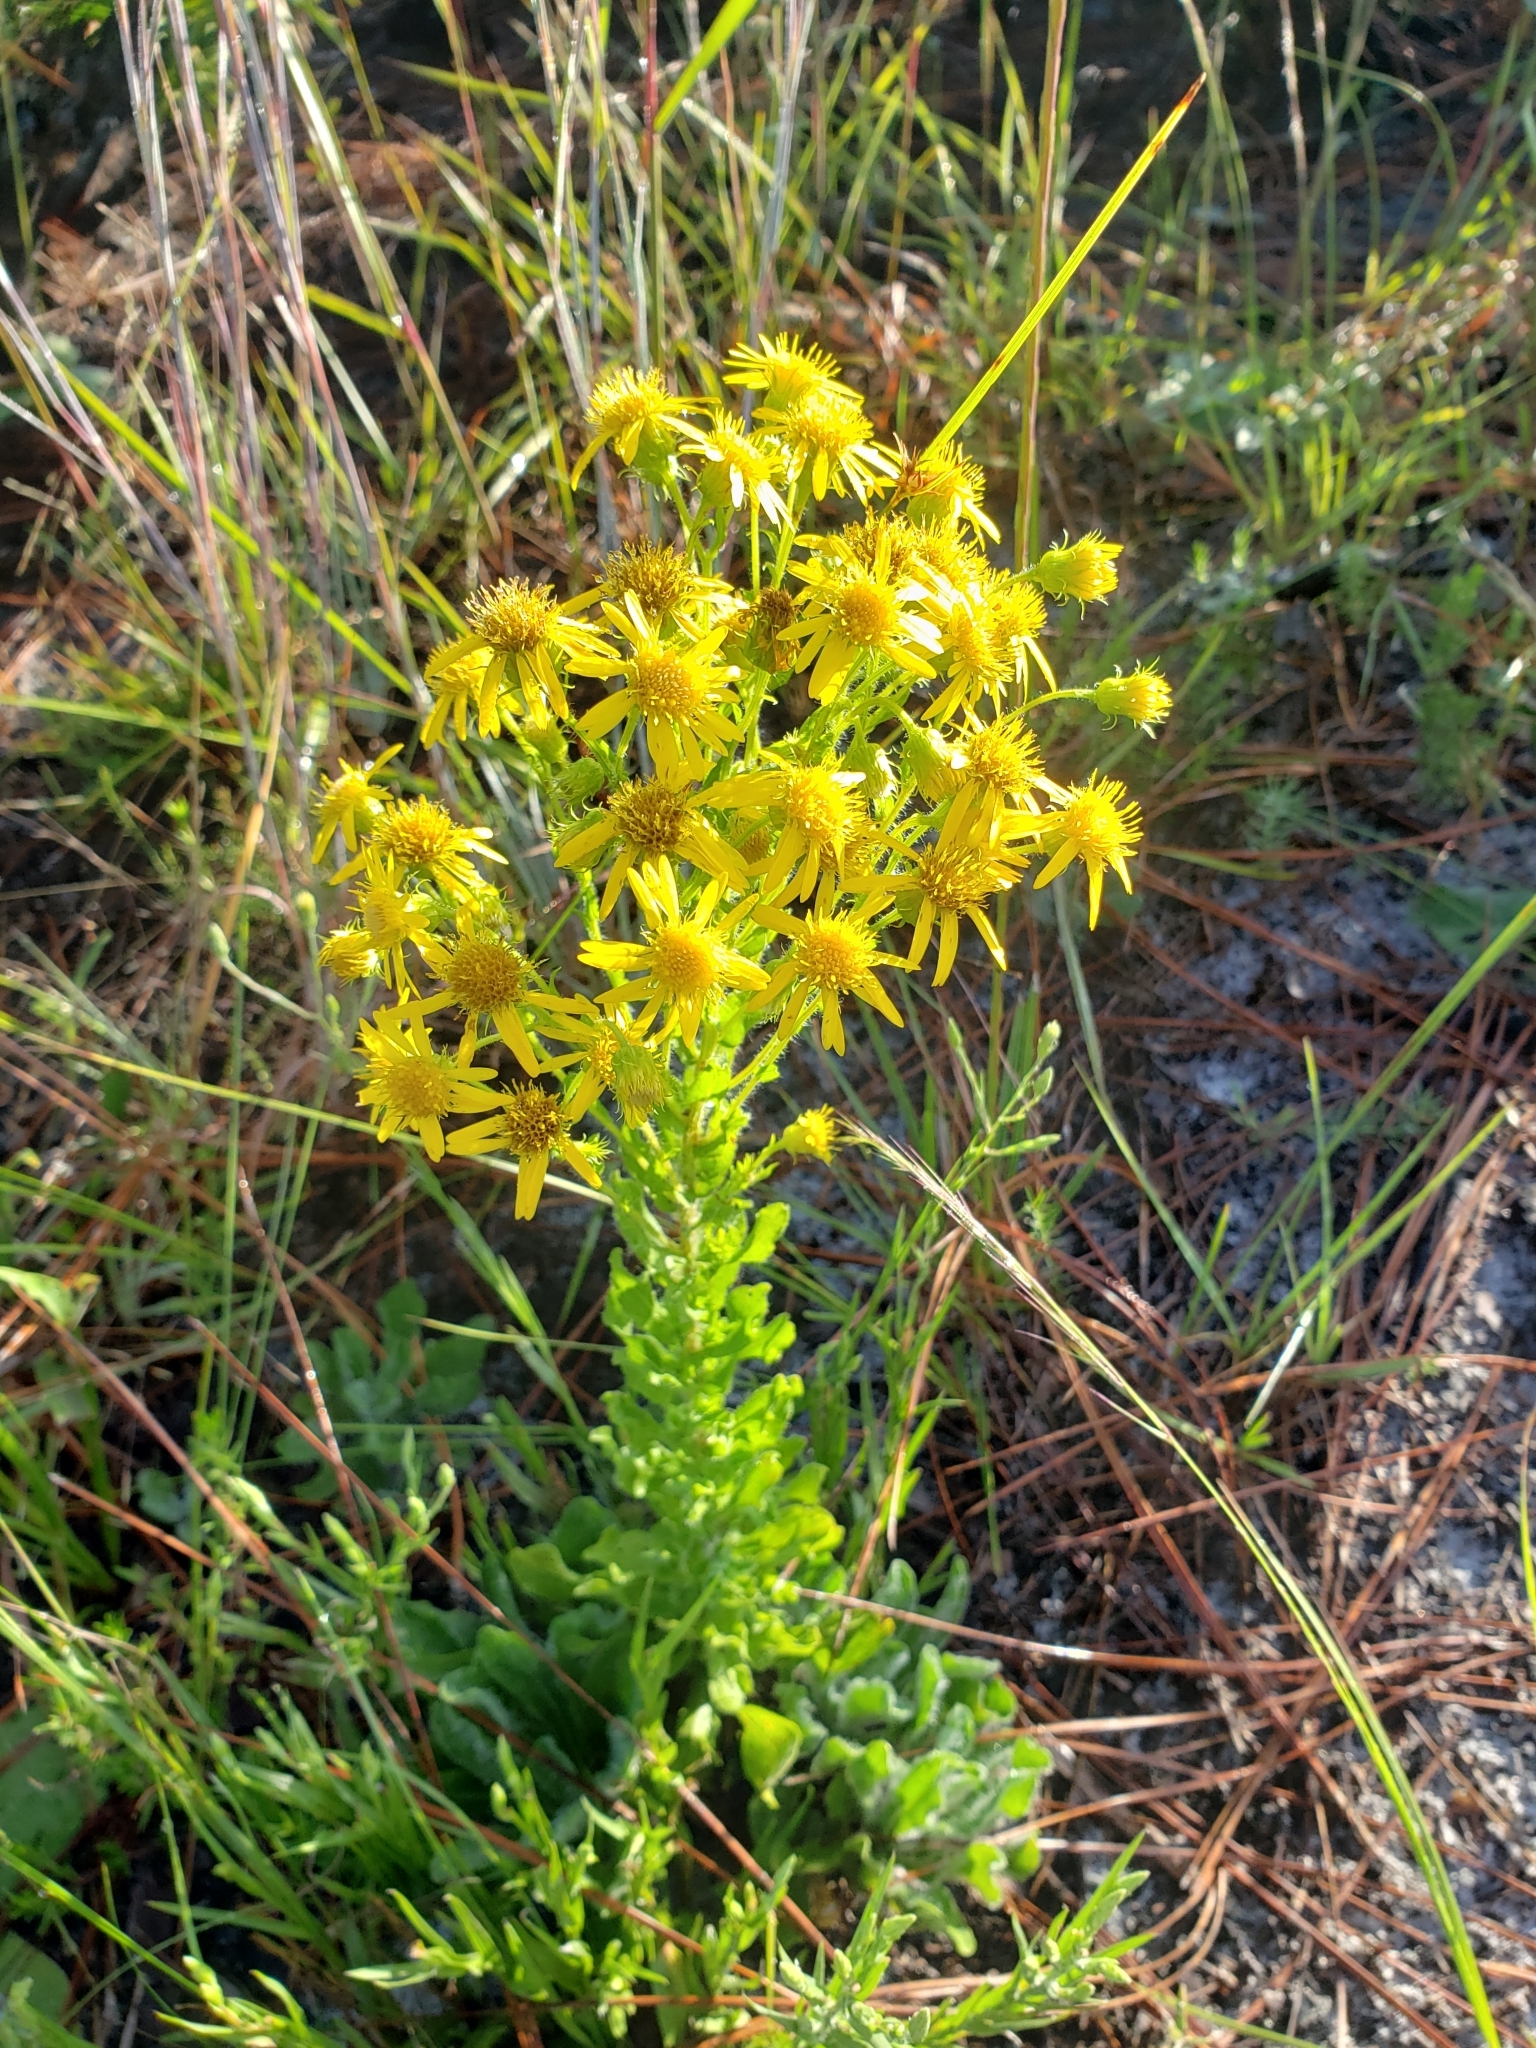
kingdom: Plantae
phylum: Tracheophyta
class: Magnoliopsida
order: Asterales
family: Asteraceae
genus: Chrysopsis
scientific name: Chrysopsis subulata
